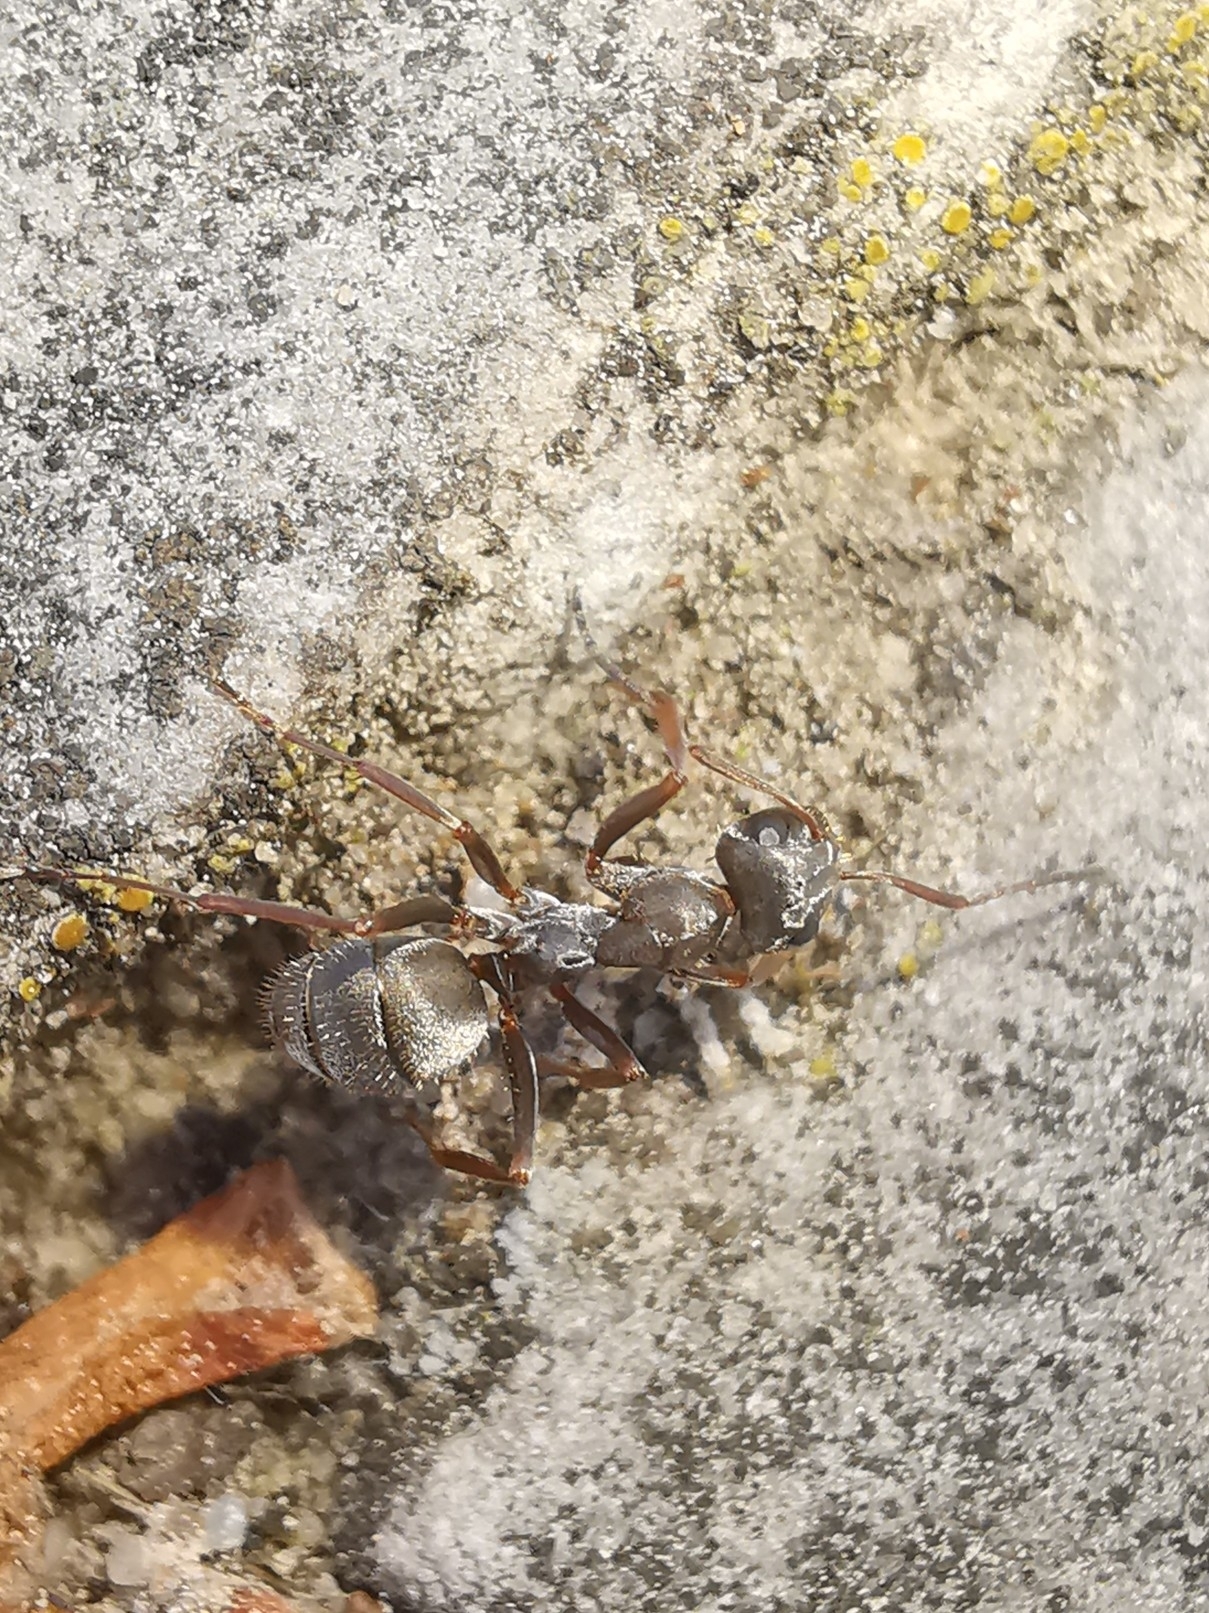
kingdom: Animalia
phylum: Arthropoda
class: Insecta
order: Hymenoptera
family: Formicidae
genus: Formica
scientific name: Formica cinerea
